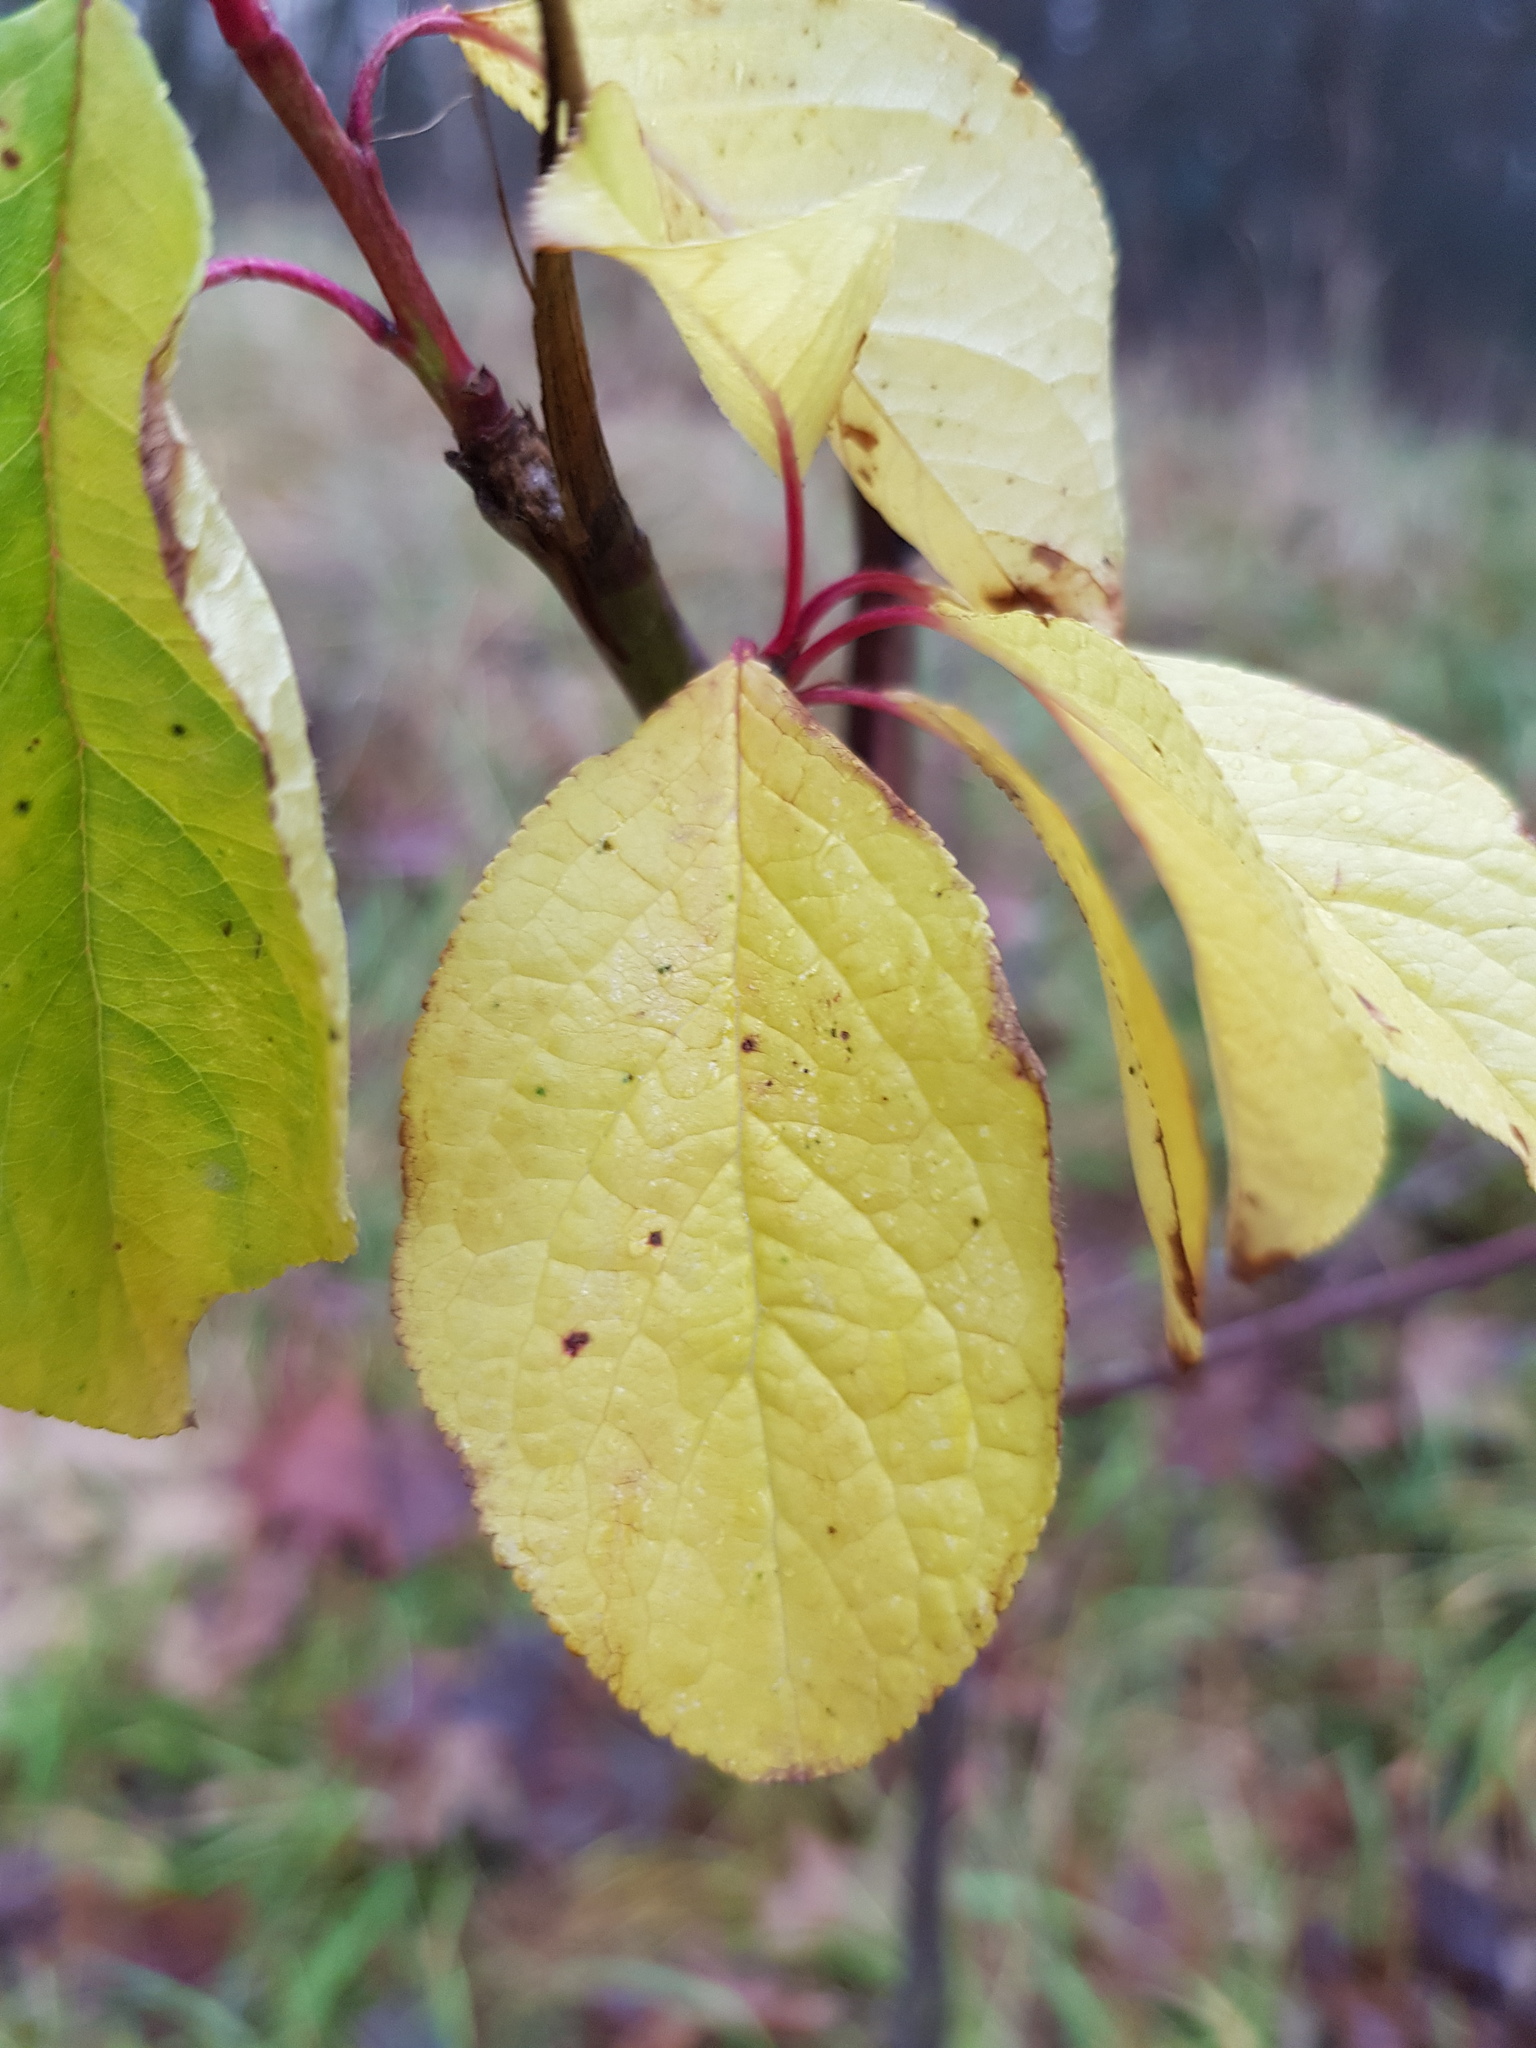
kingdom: Plantae
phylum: Tracheophyta
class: Magnoliopsida
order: Rosales
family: Rhamnaceae
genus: Frangula
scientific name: Frangula alnus
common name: Alder buckthorn
